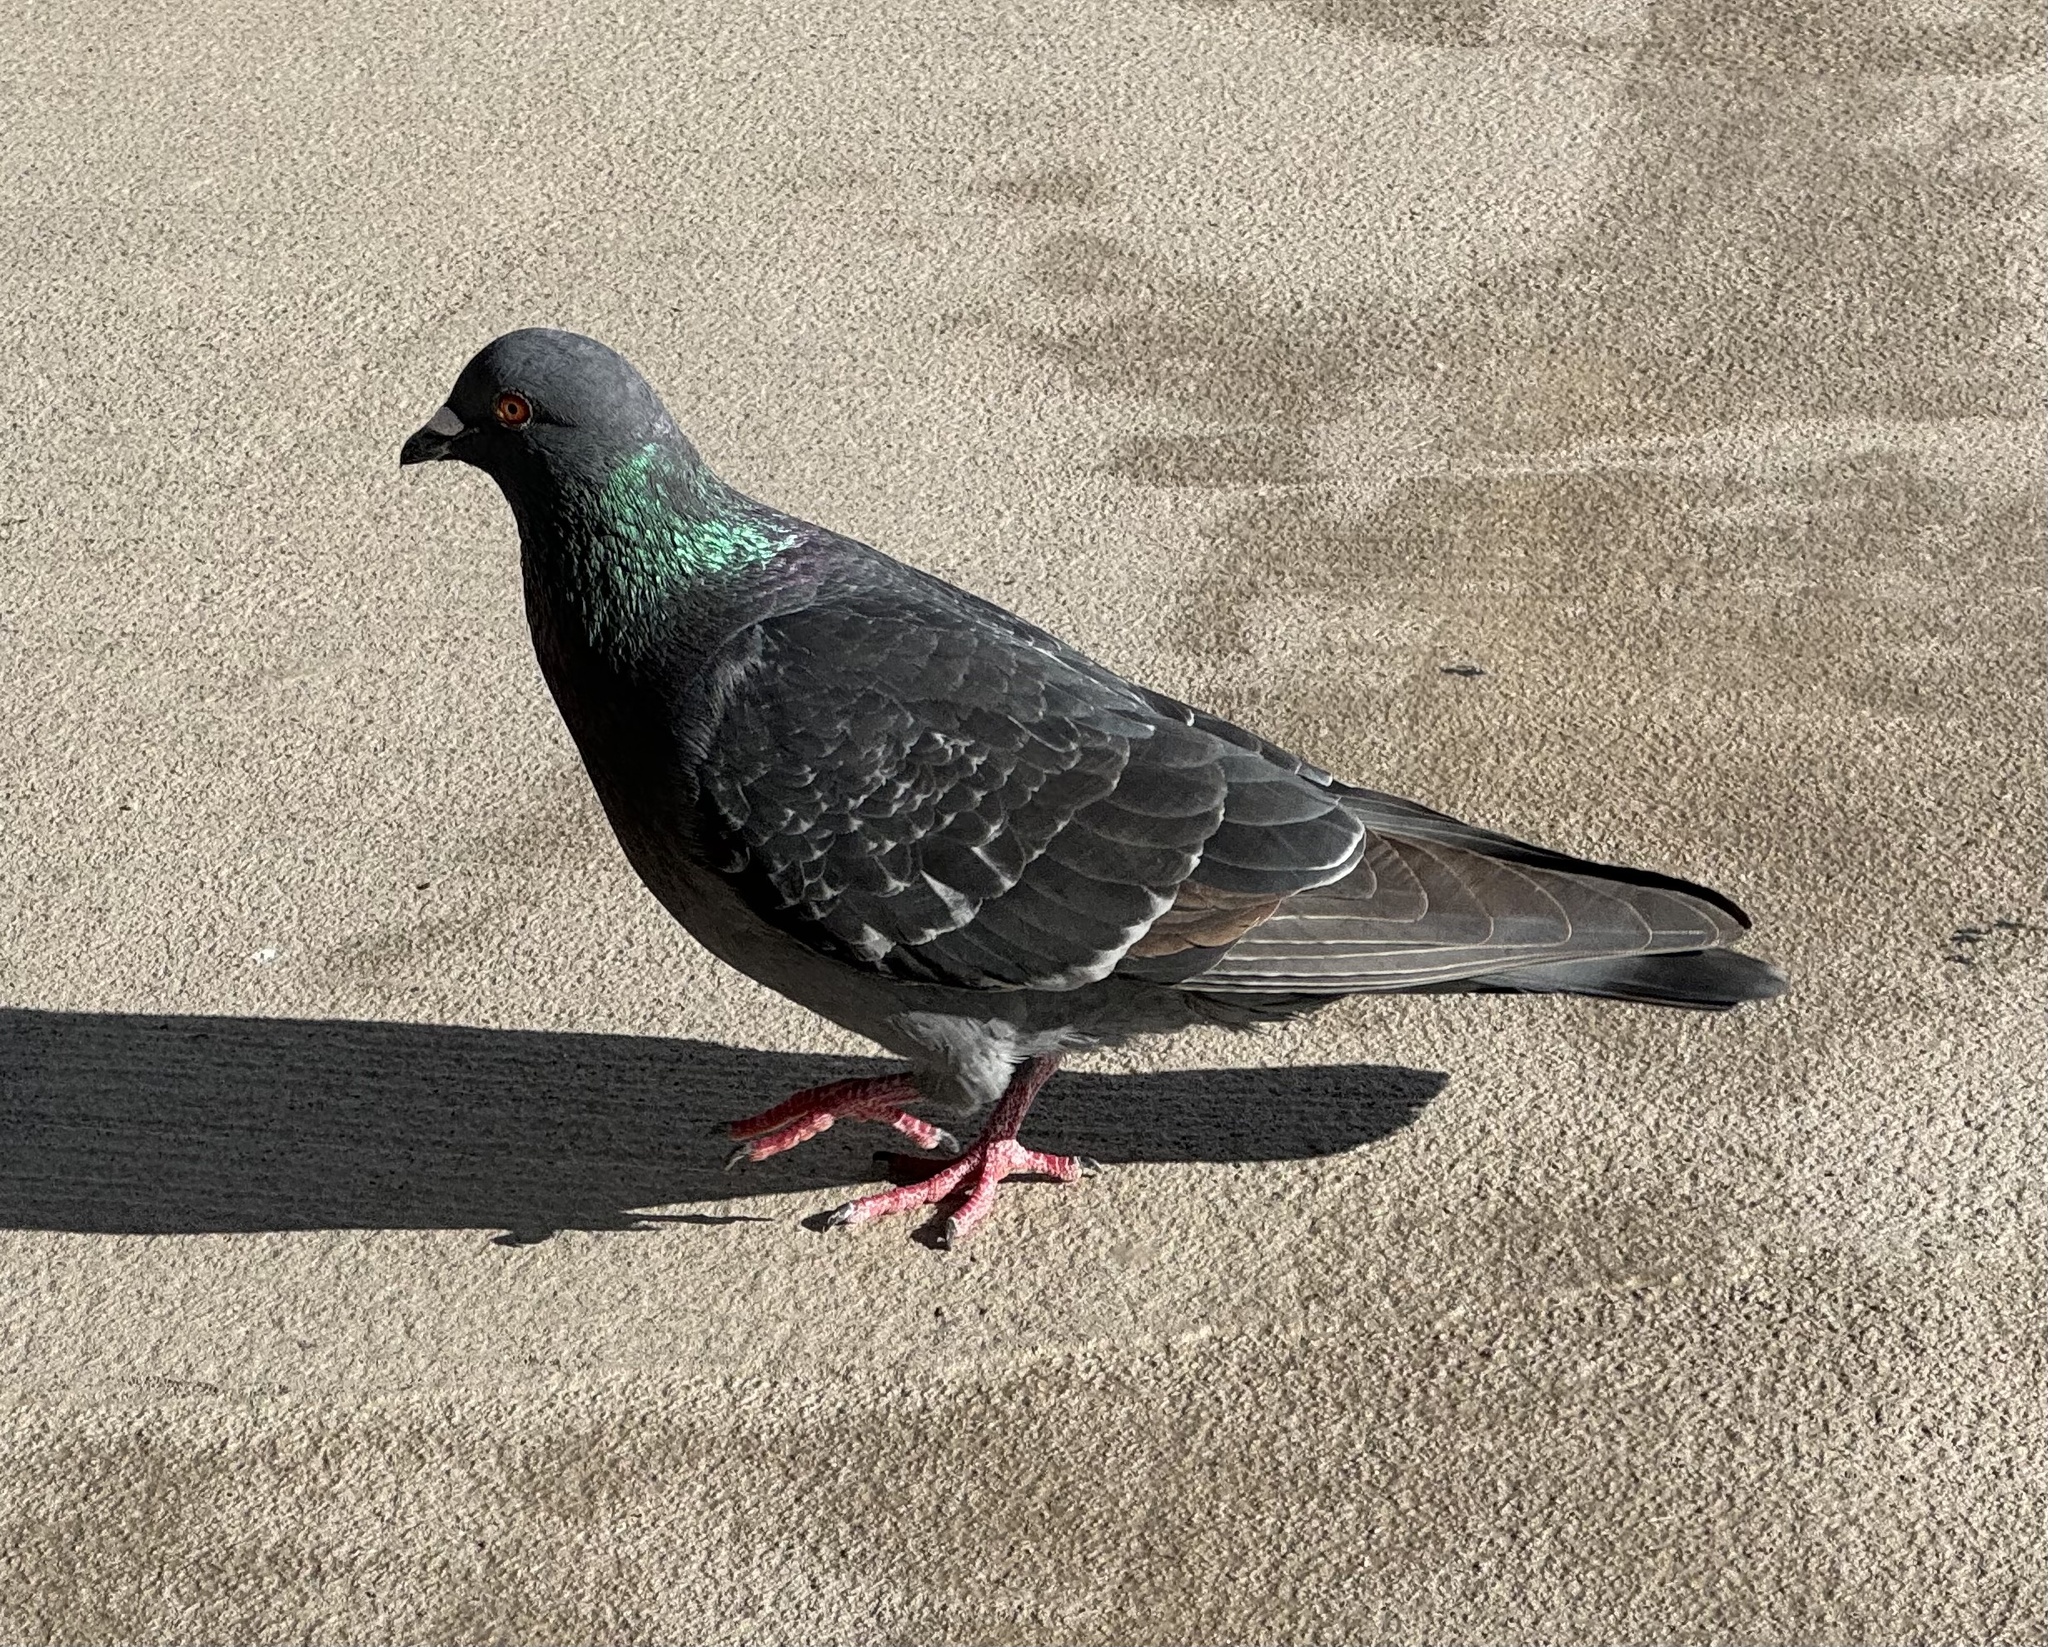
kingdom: Animalia
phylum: Chordata
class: Aves
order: Columbiformes
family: Columbidae
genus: Columba
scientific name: Columba livia
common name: Rock pigeon
